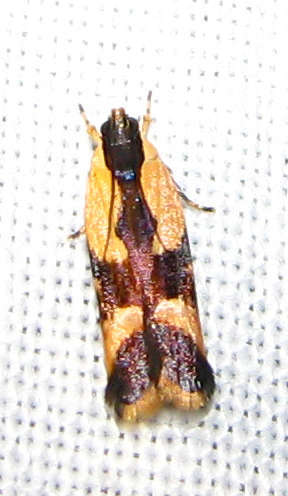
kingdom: Animalia
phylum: Arthropoda
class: Insecta
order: Lepidoptera
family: Gelechiidae
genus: Ardozyga
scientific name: Ardozyga telopis
